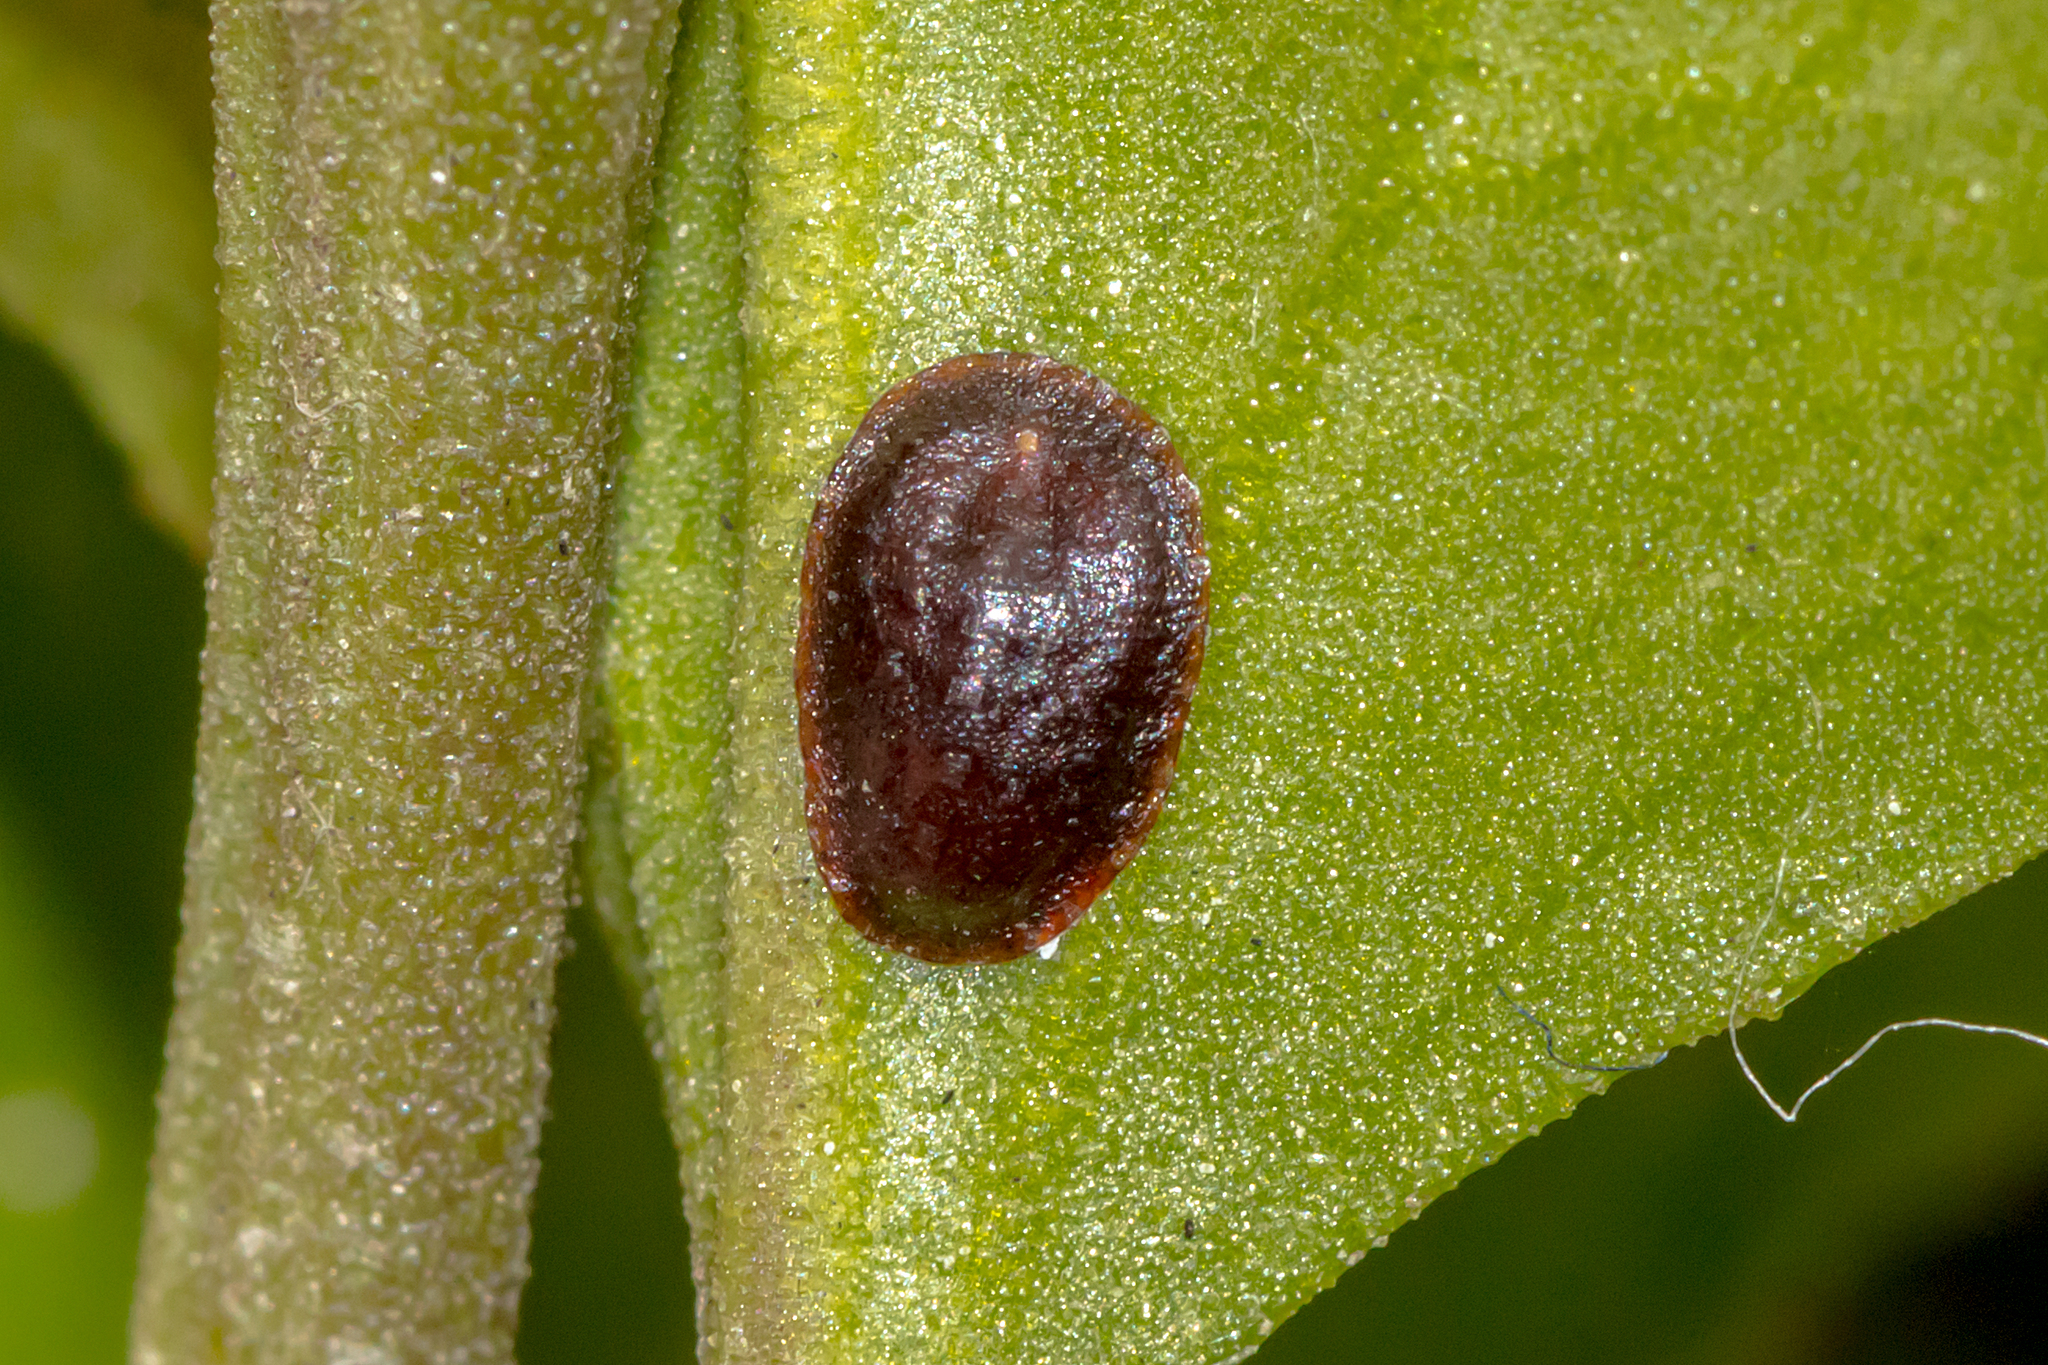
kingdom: Animalia
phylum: Arthropoda
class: Insecta
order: Hemiptera
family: Coccidae
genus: Parasaissetia
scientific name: Parasaissetia nigra
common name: Black scale
